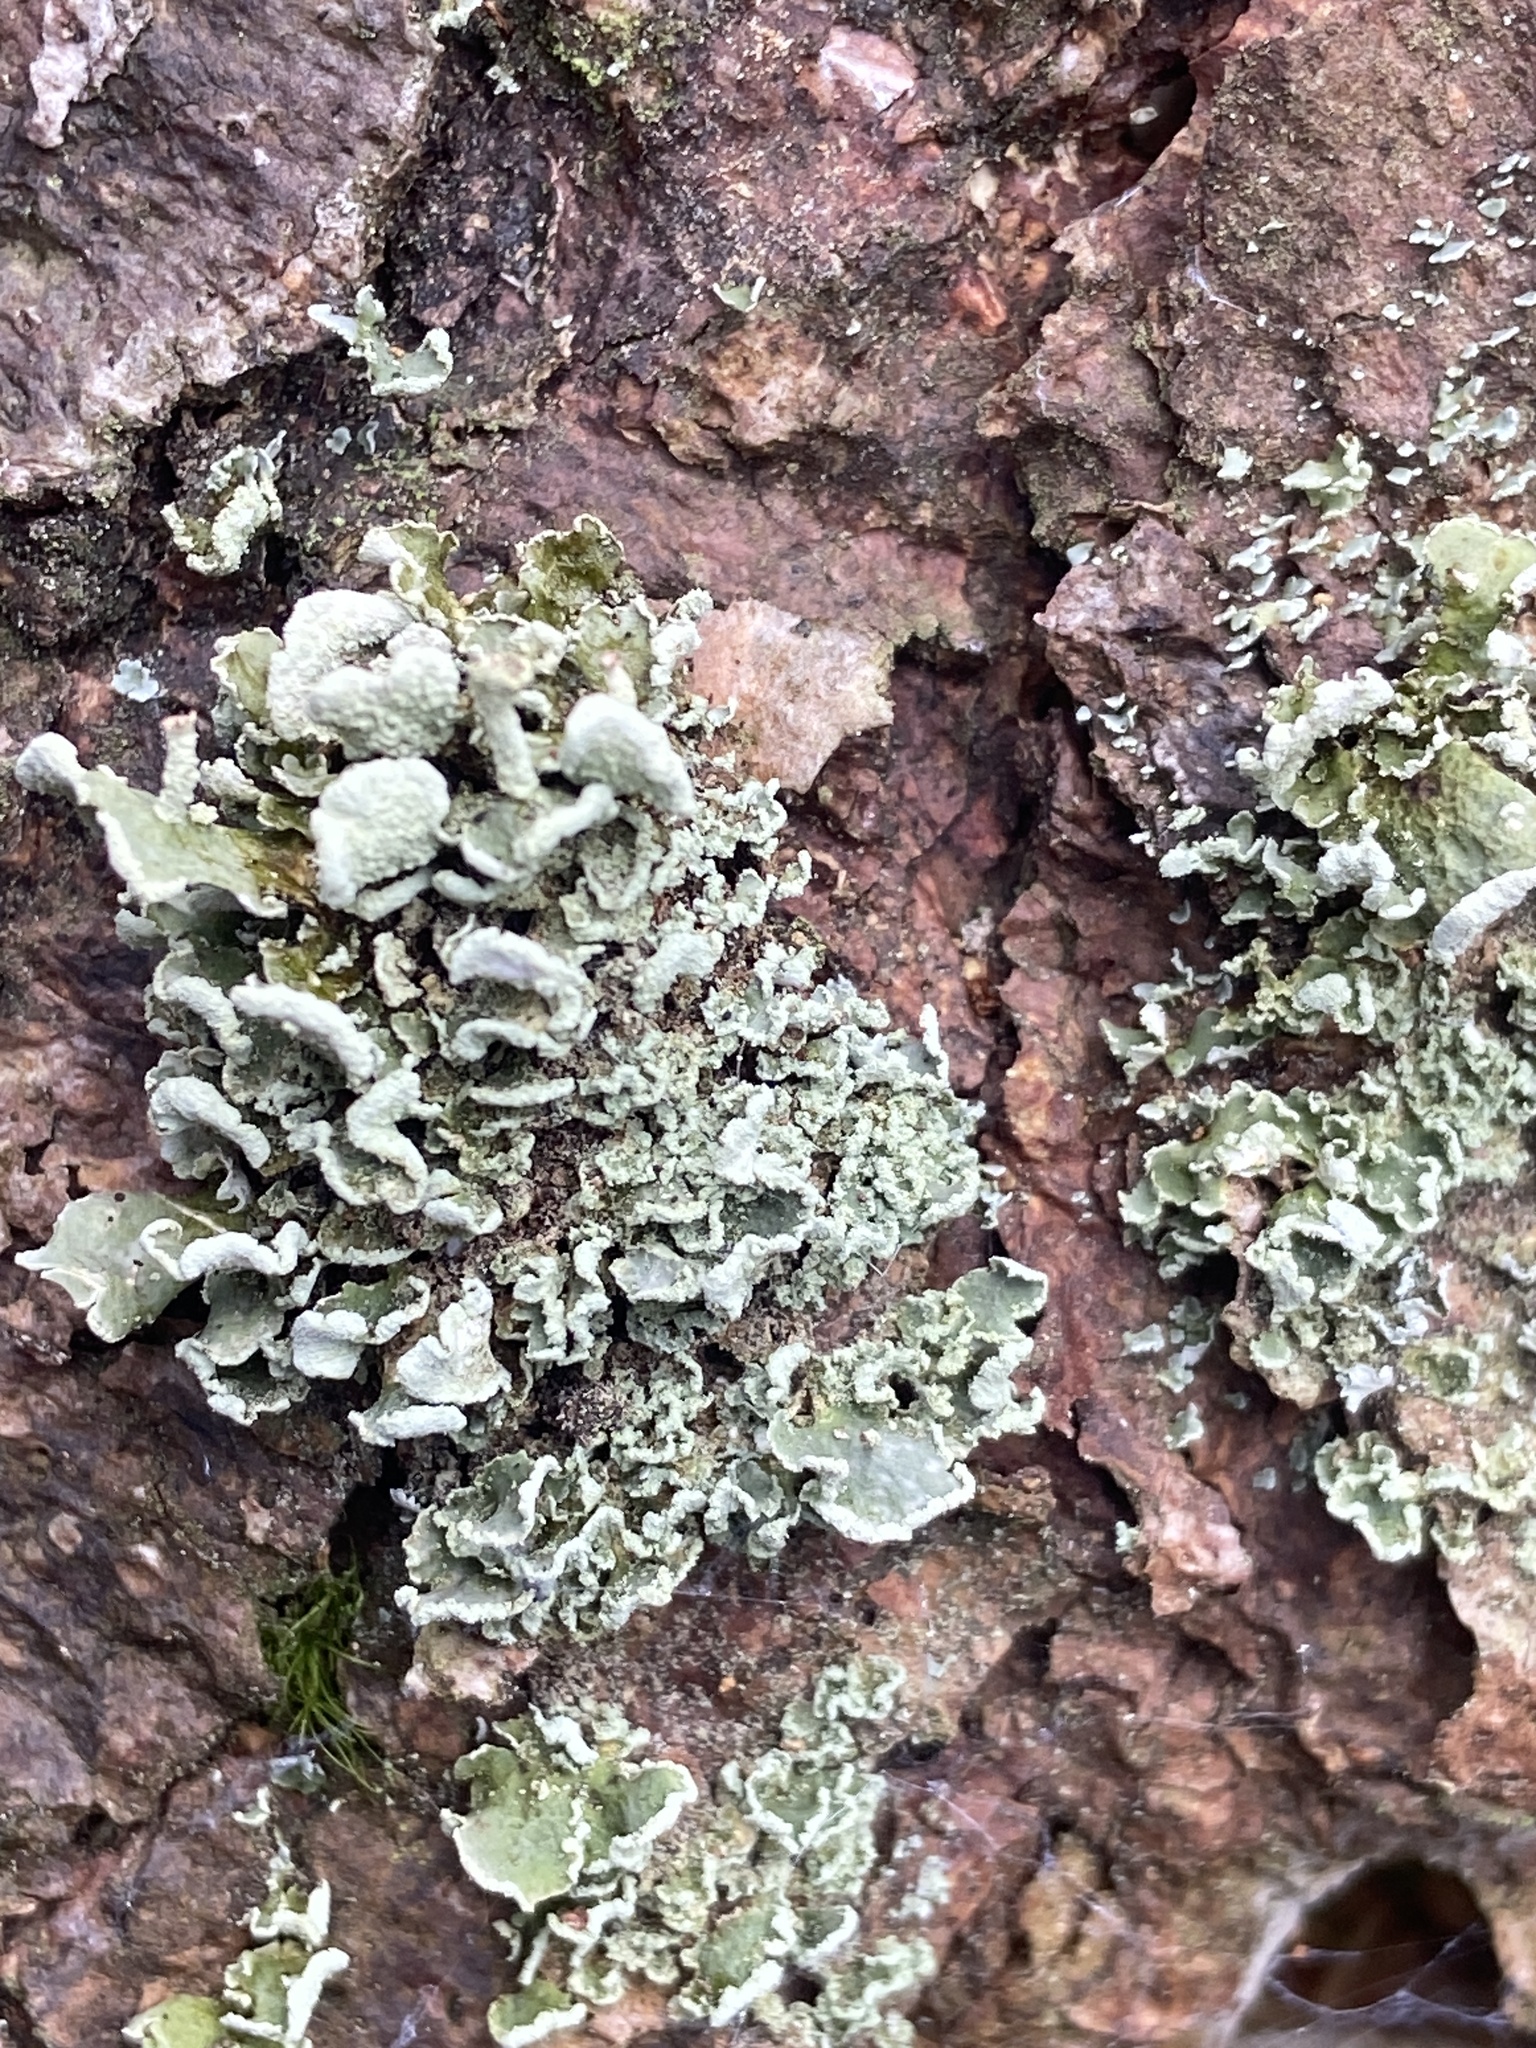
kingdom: Fungi
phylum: Ascomycota
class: Lecanoromycetes
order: Lecanorales
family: Cladoniaceae
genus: Cladonia
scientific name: Cladonia digitata
